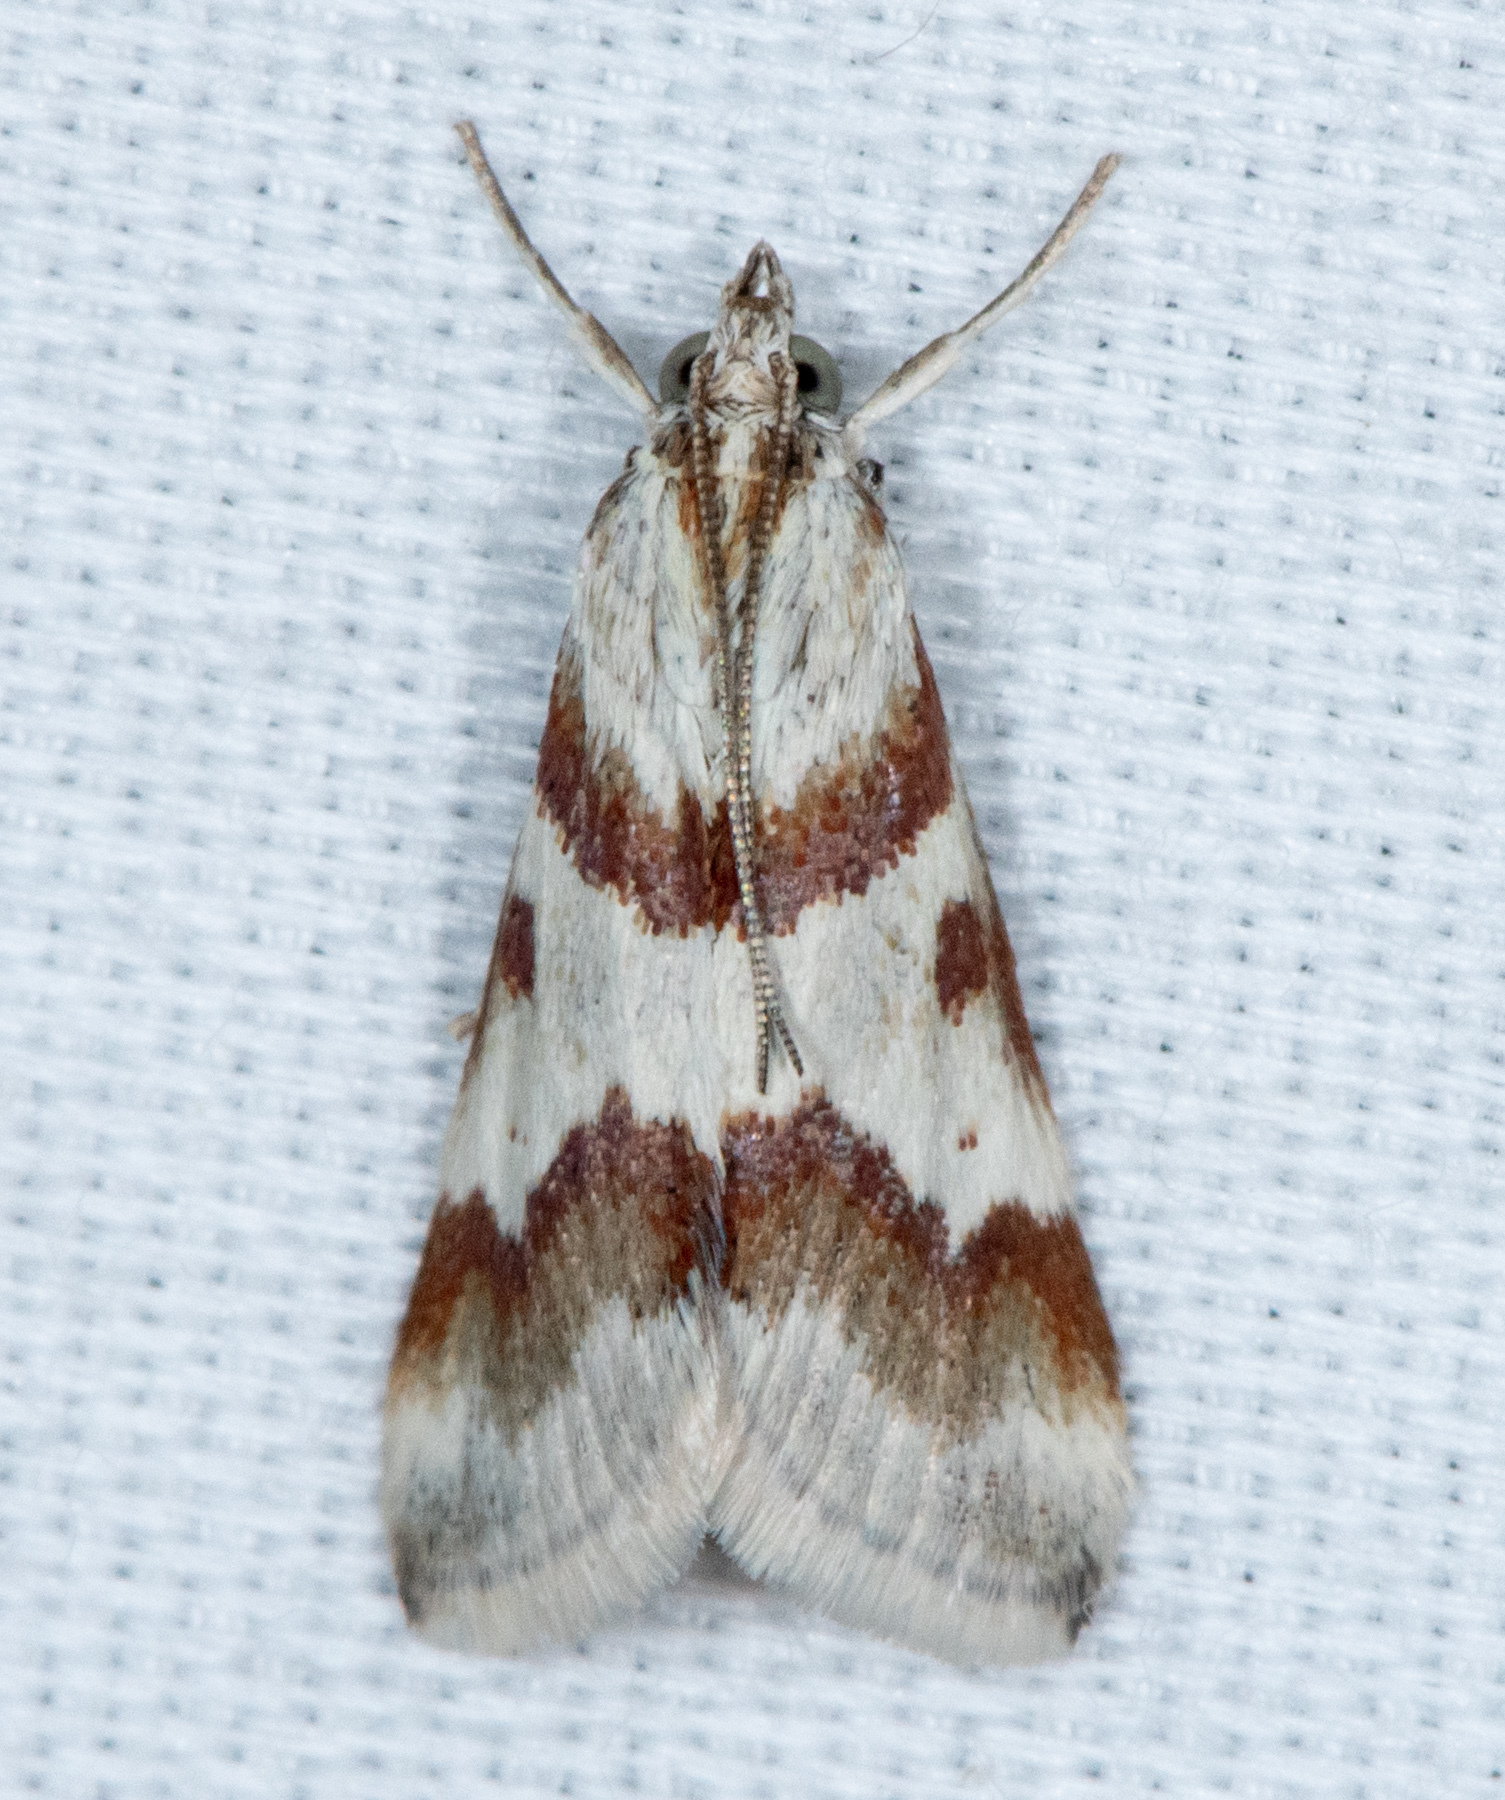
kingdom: Animalia
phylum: Arthropoda
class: Insecta
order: Lepidoptera
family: Crambidae
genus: Noctuelia
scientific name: Noctuelia Mimoschinia rufofascialis
